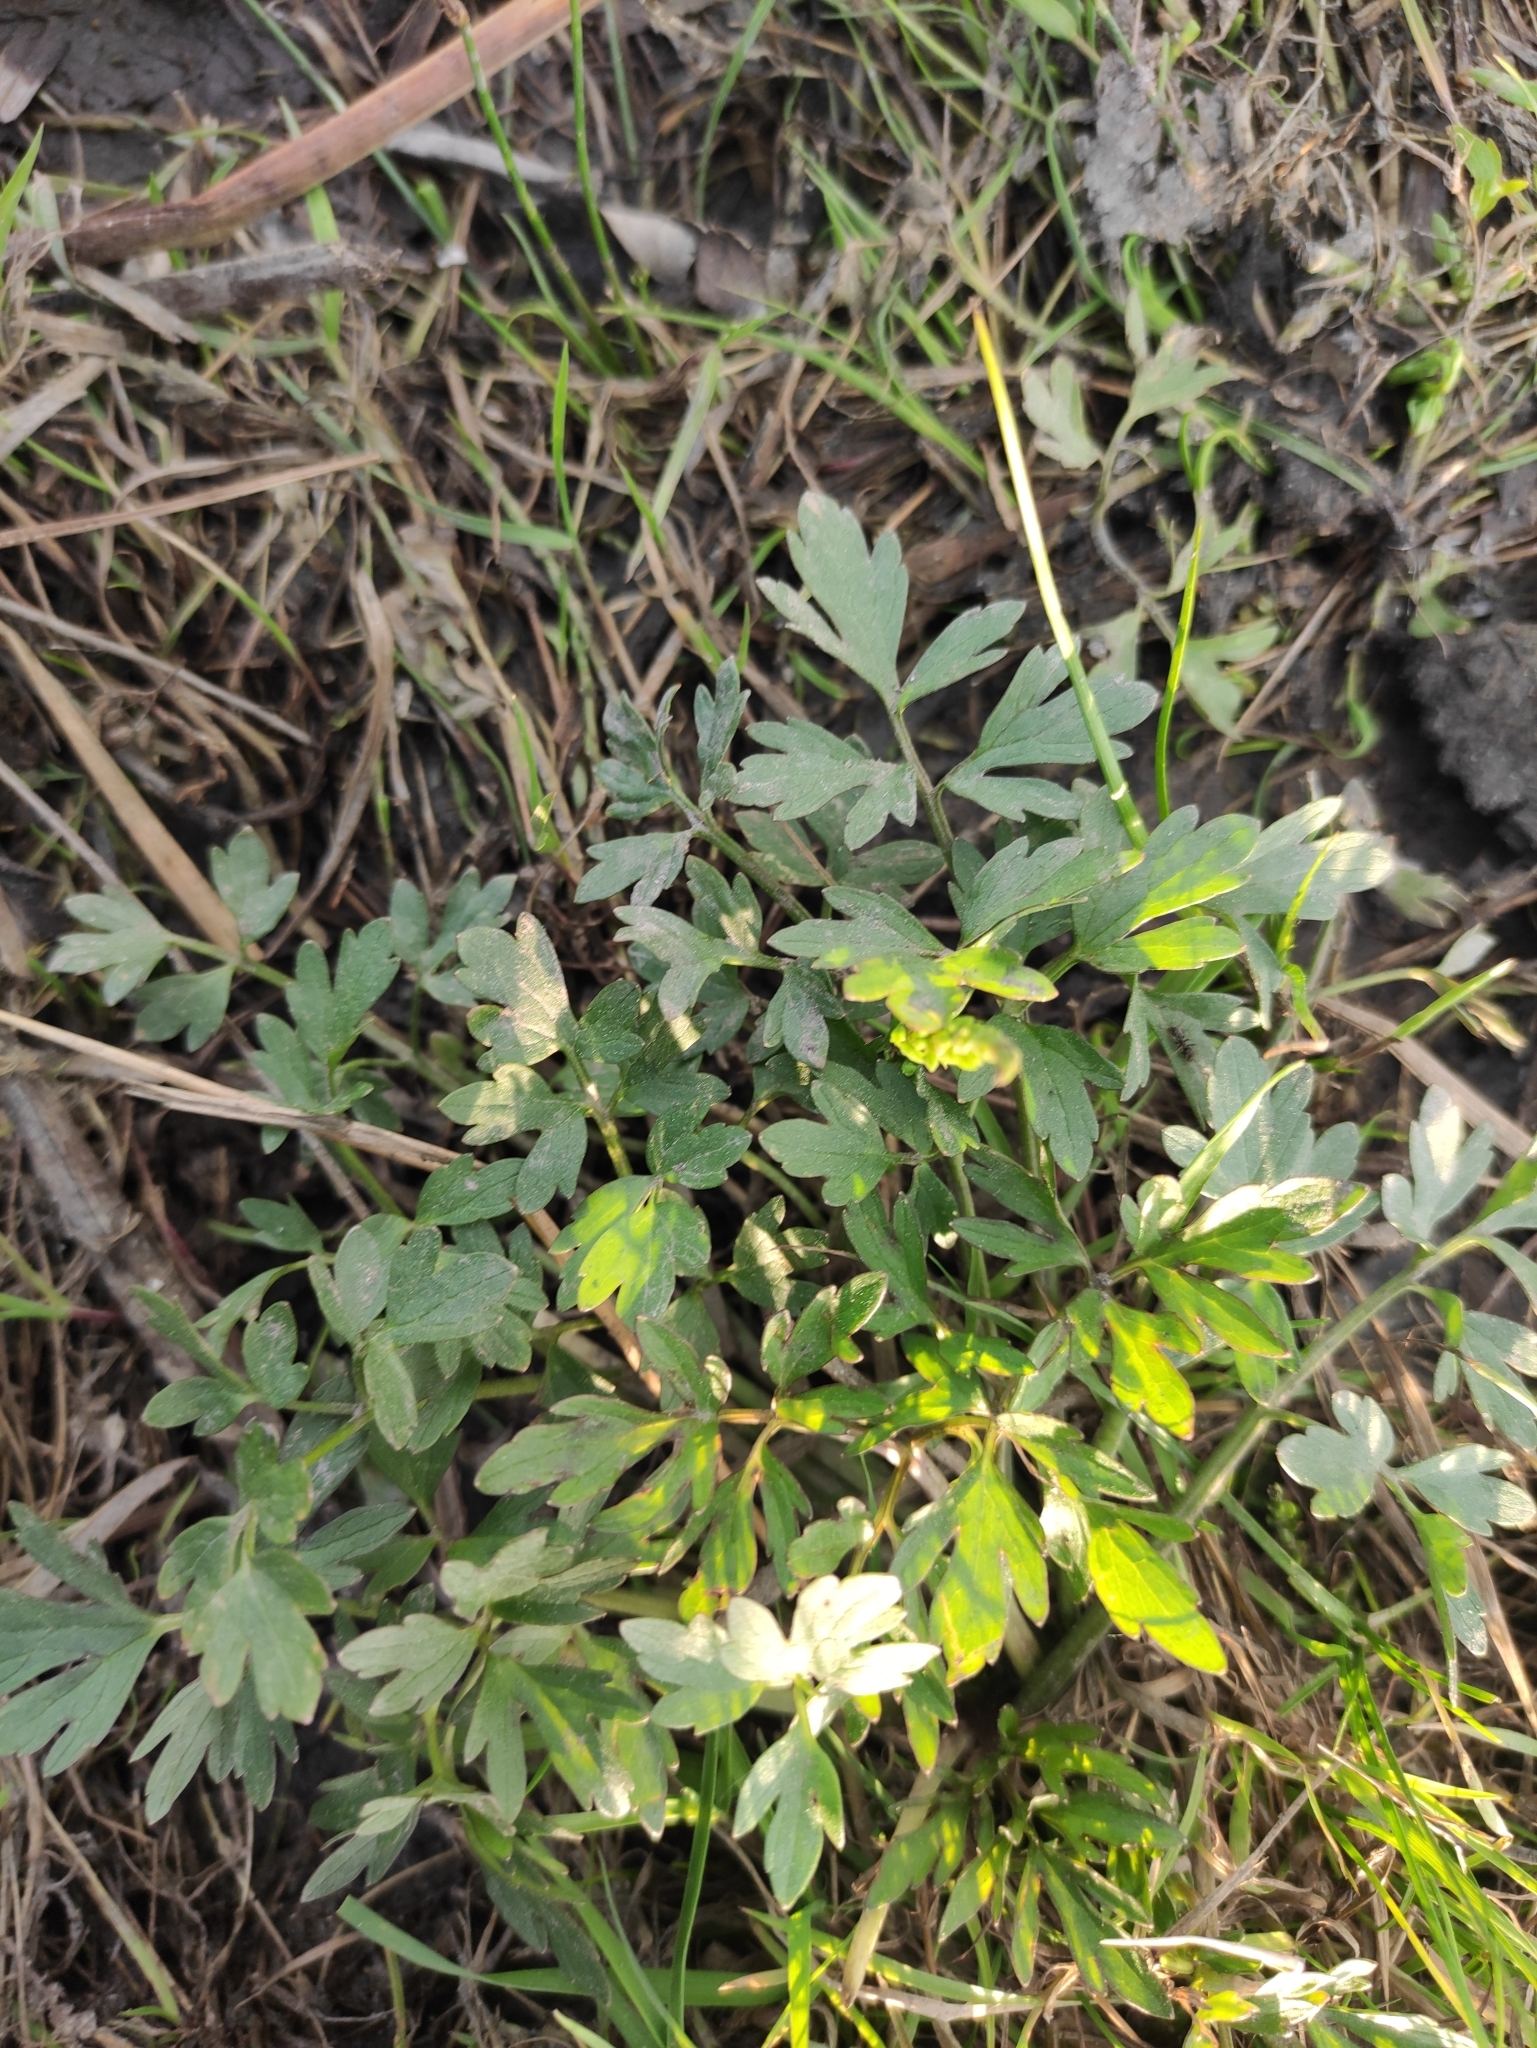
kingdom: Plantae
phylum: Tracheophyta
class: Magnoliopsida
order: Ranunculales
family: Ranunculaceae
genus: Ranunculus
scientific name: Ranunculus repens
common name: Creeping buttercup
